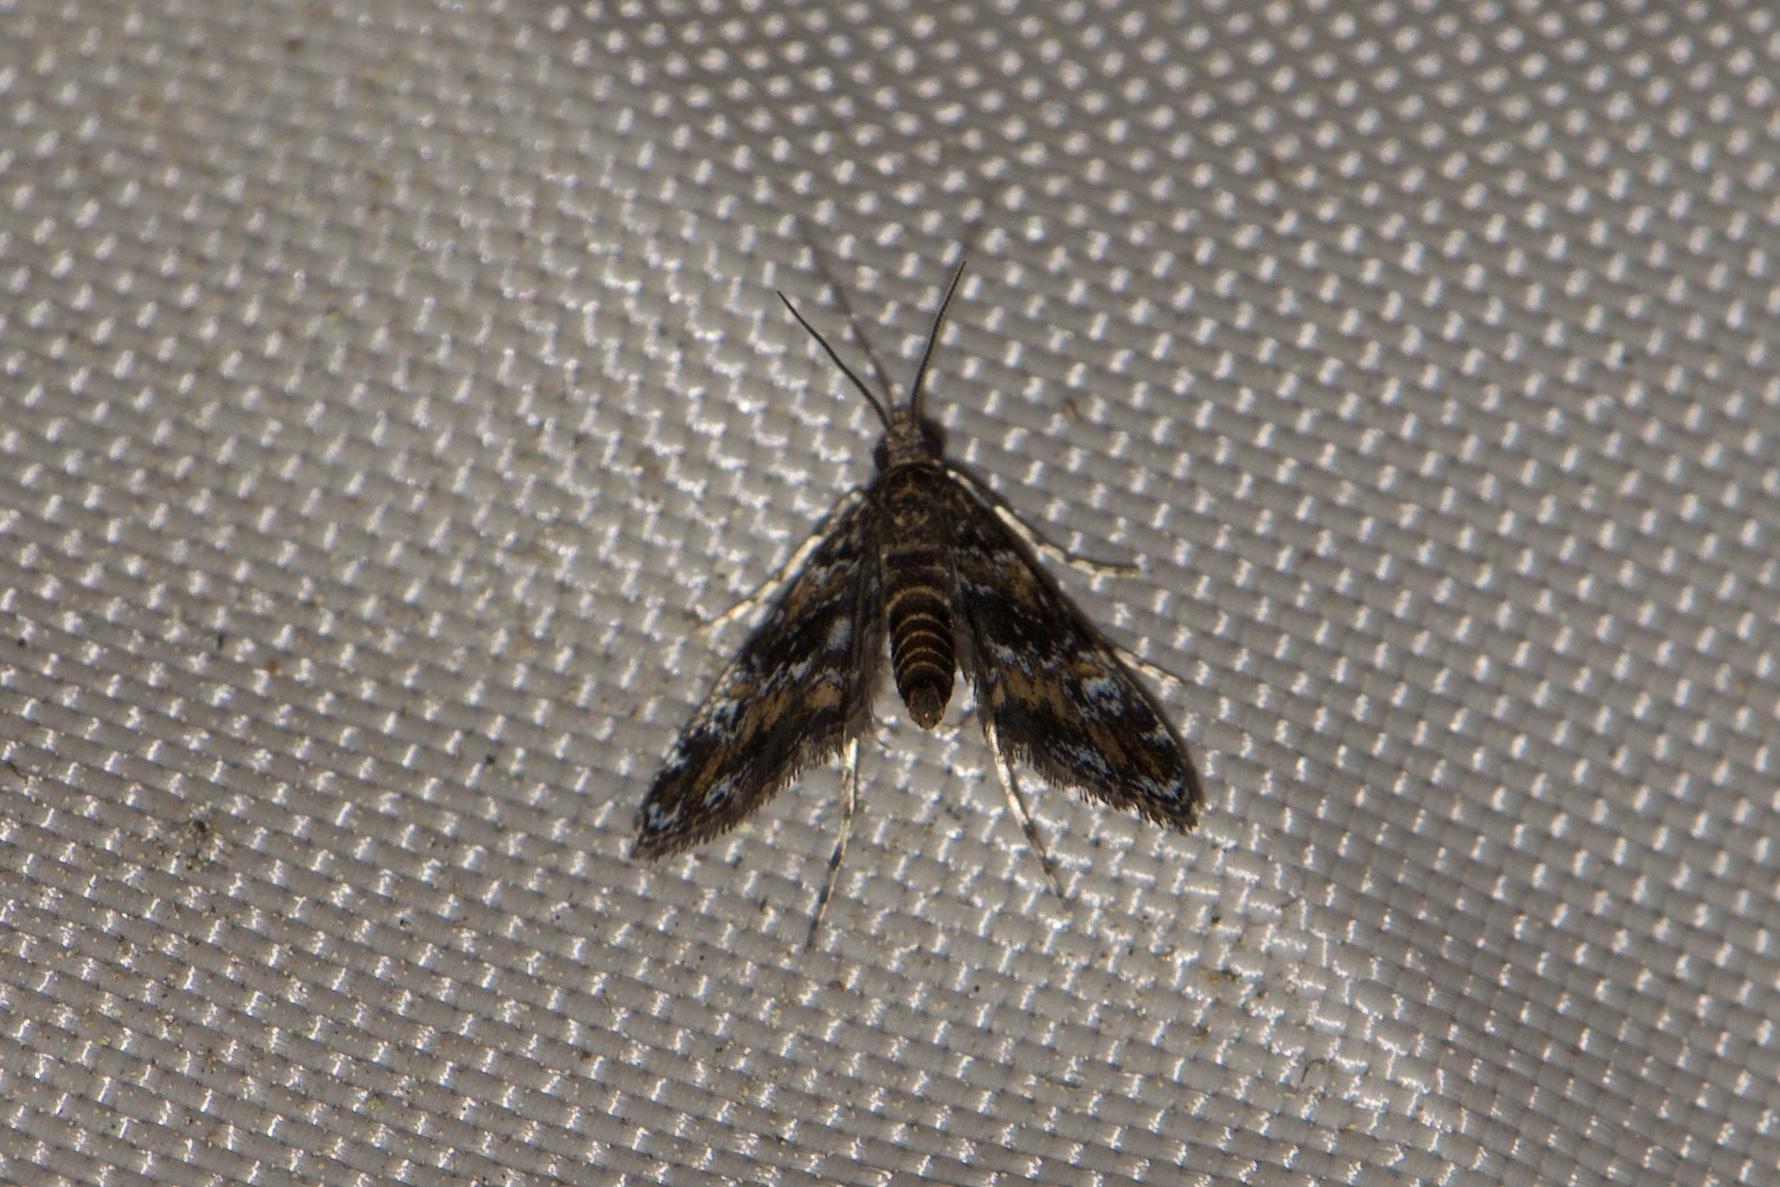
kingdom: Animalia
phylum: Arthropoda
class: Insecta
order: Lepidoptera
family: Crambidae
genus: Elophila
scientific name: Elophila obliteralis
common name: Waterlily leafcutter moth
